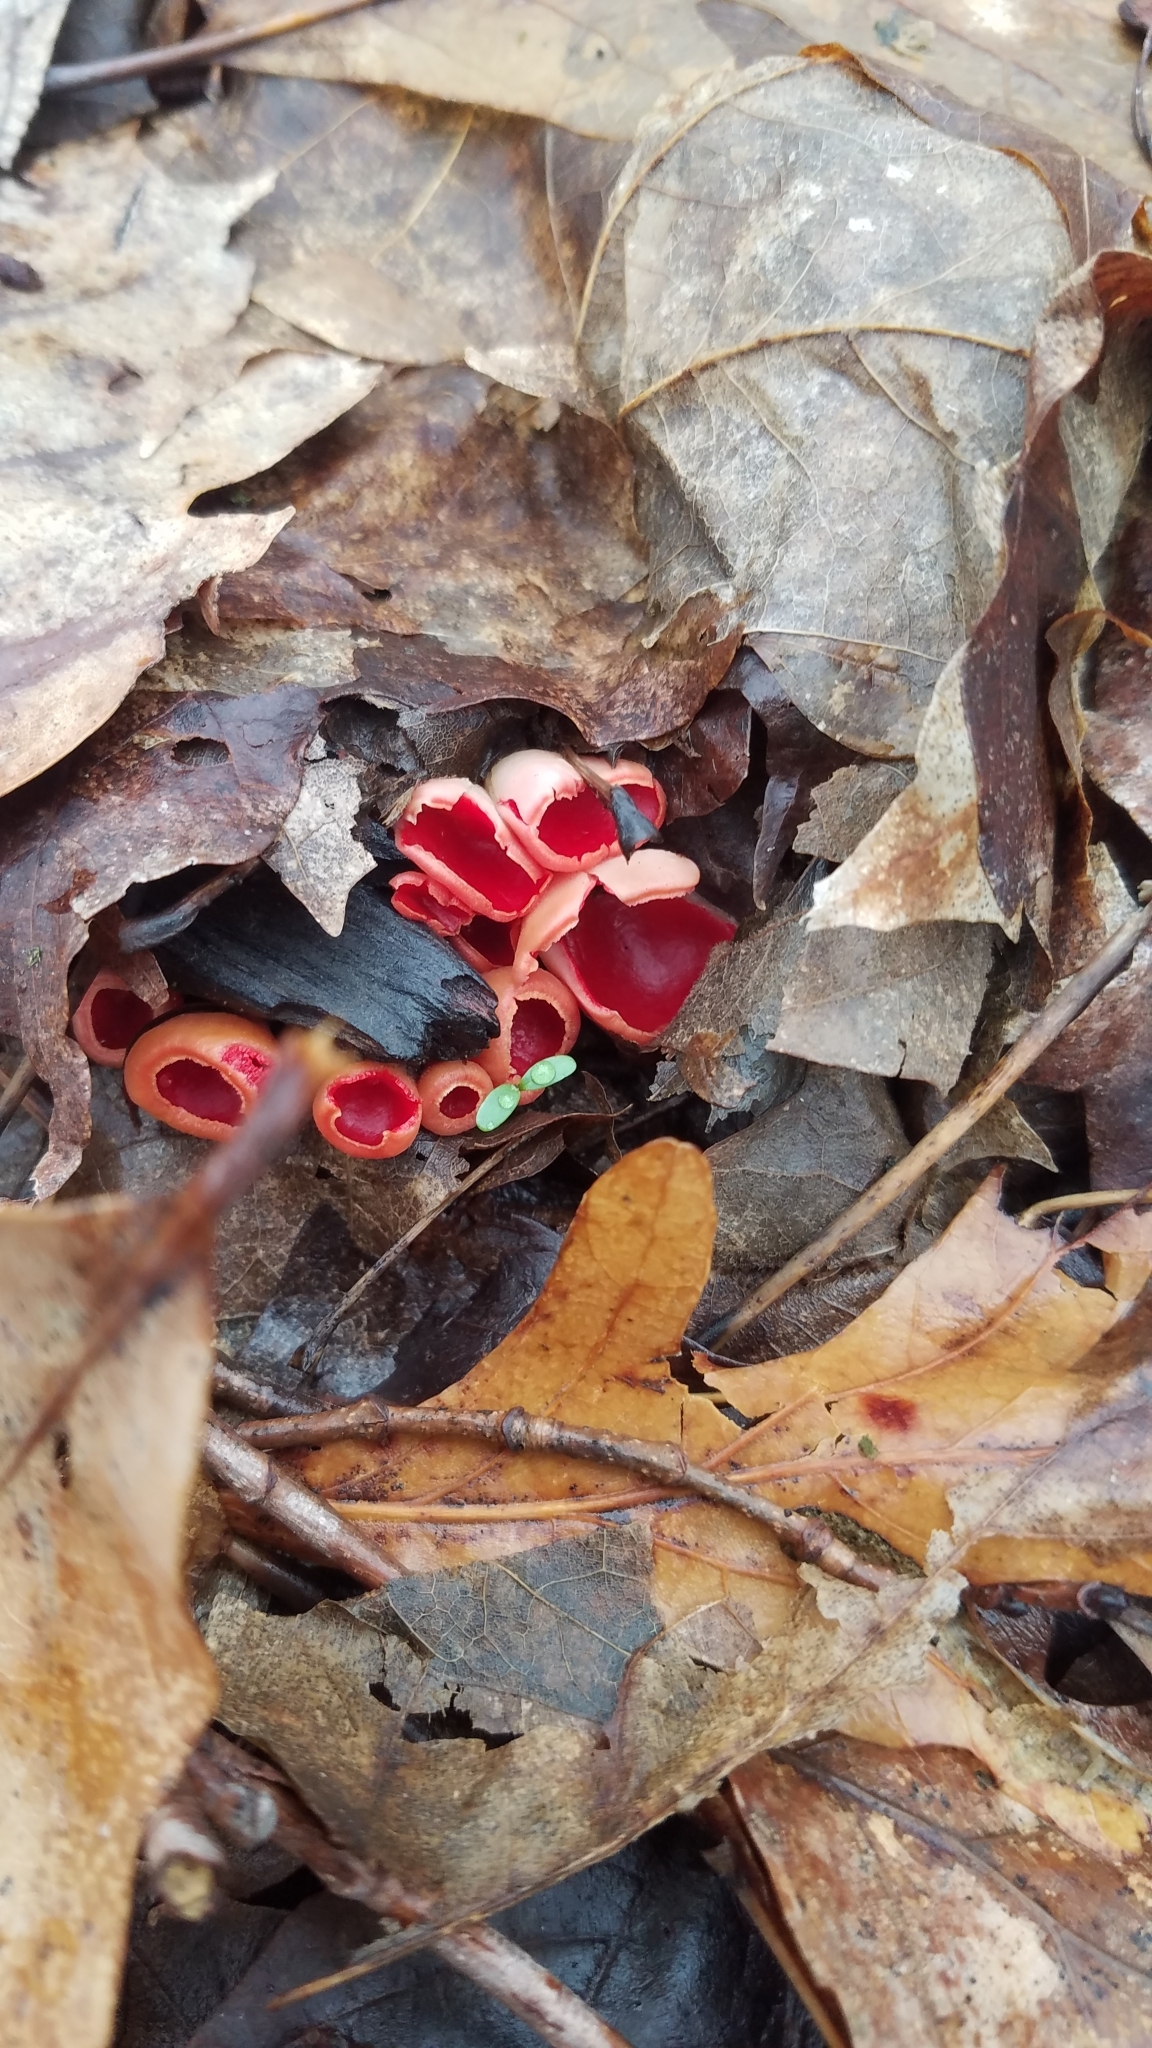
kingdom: Fungi
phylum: Ascomycota
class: Pezizomycetes
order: Pezizales
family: Sarcoscyphaceae
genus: Sarcoscypha
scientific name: Sarcoscypha austriaca
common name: Scarlet elfcup
